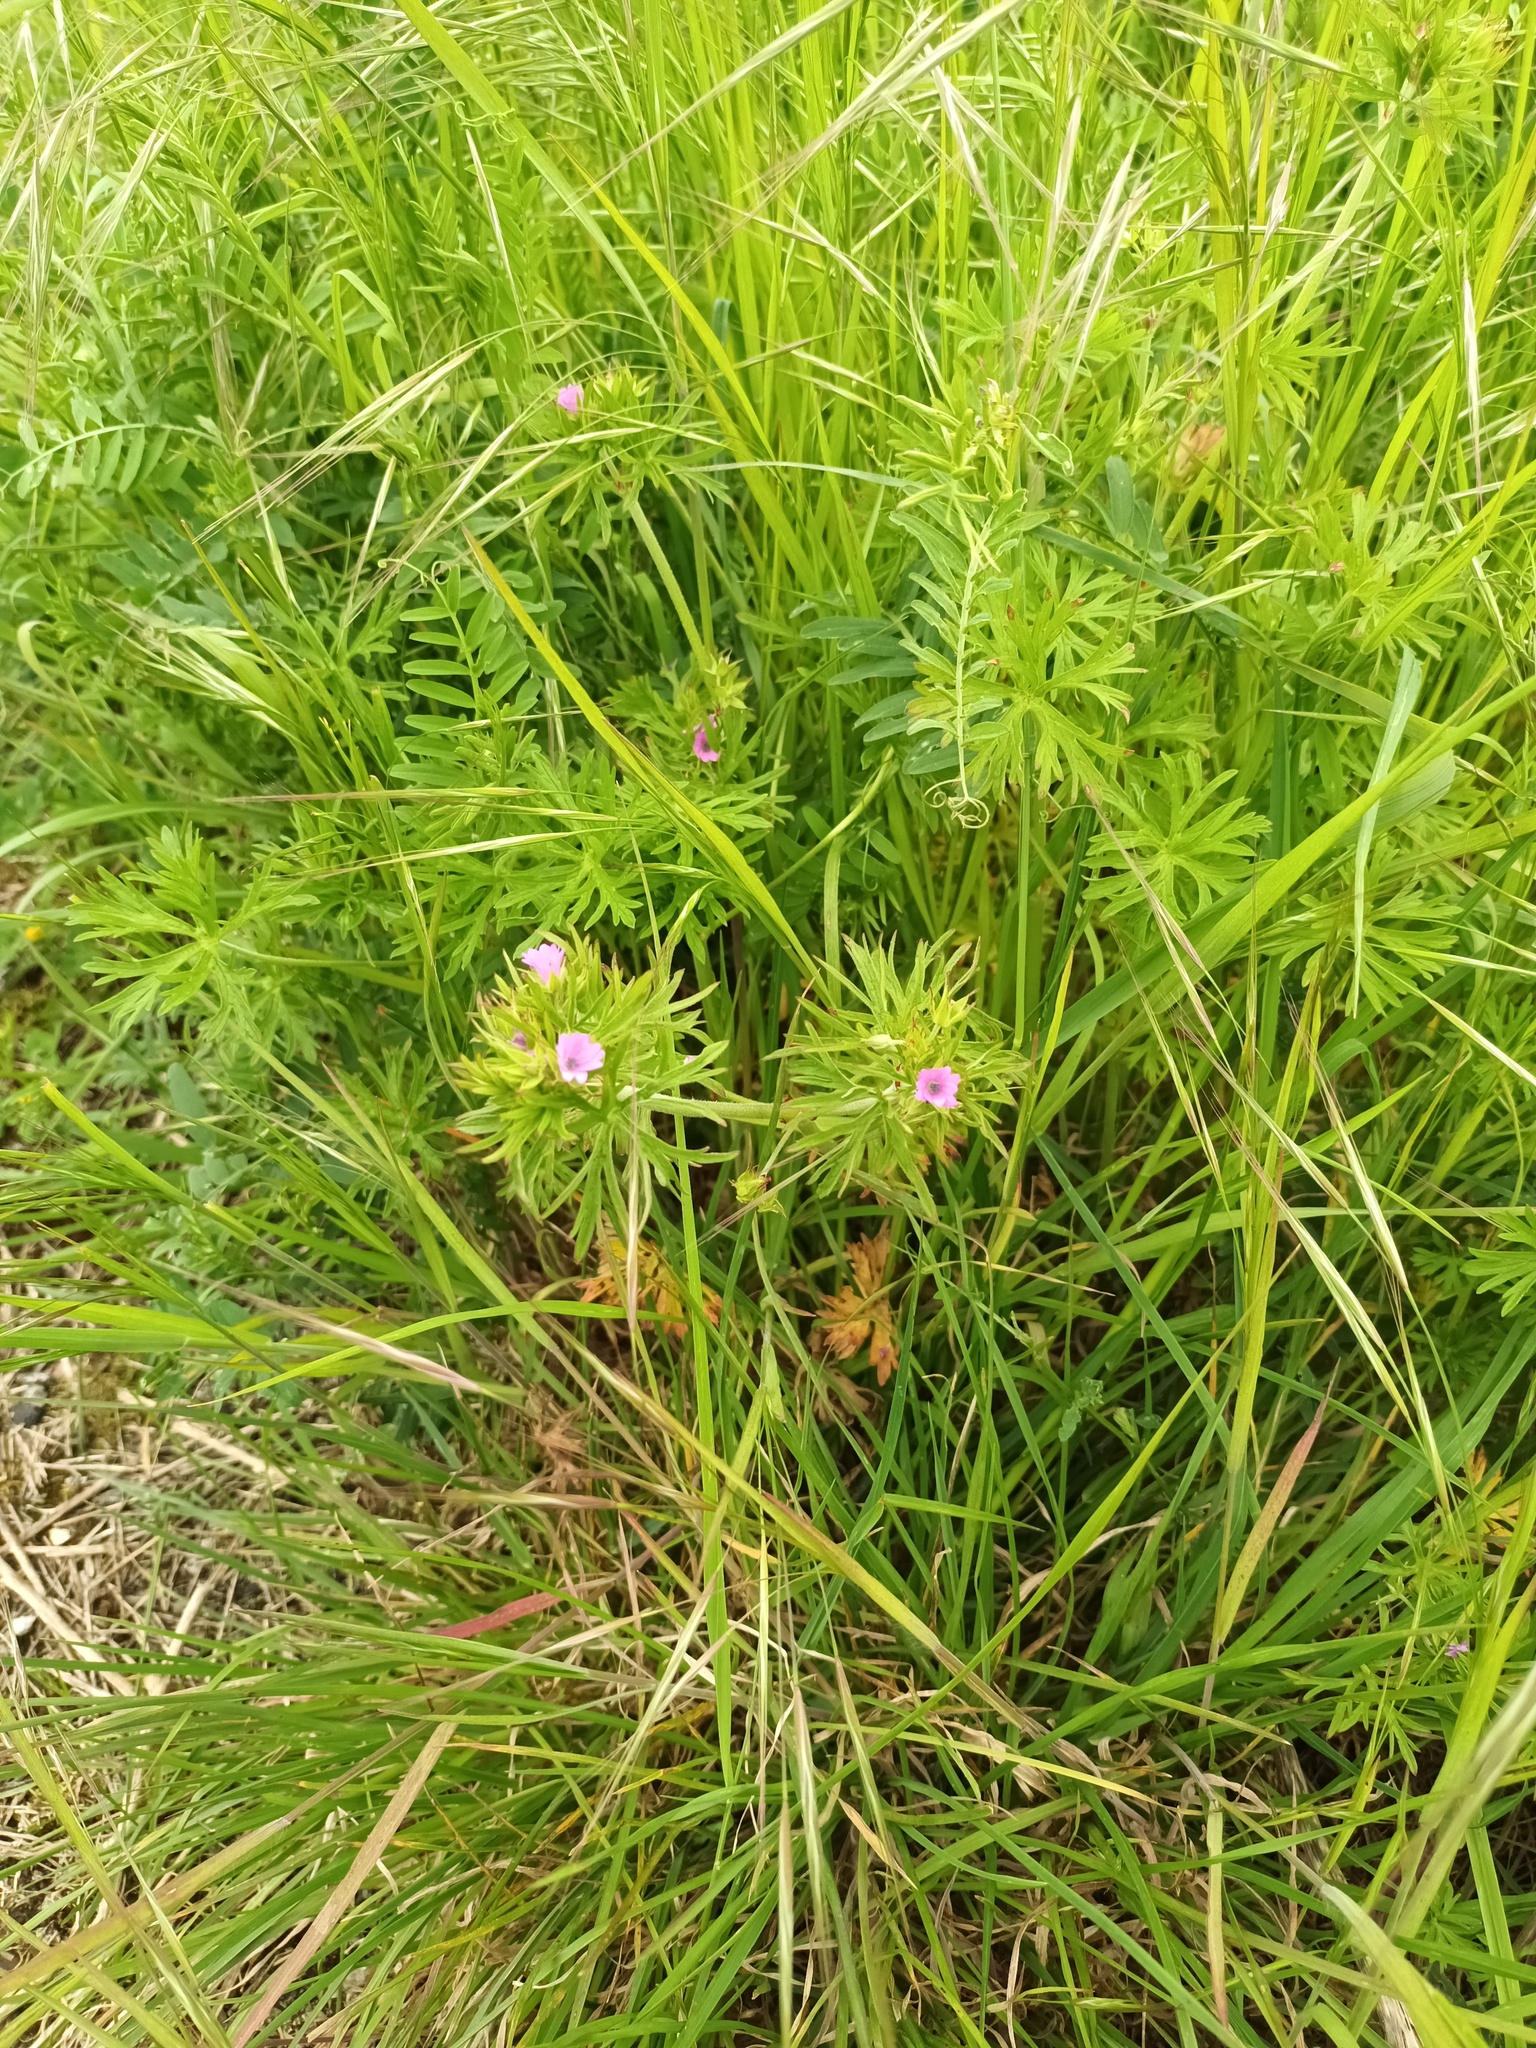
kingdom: Plantae
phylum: Tracheophyta
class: Magnoliopsida
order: Geraniales
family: Geraniaceae
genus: Geranium
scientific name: Geranium dissectum
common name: Cut-leaved crane's-bill
